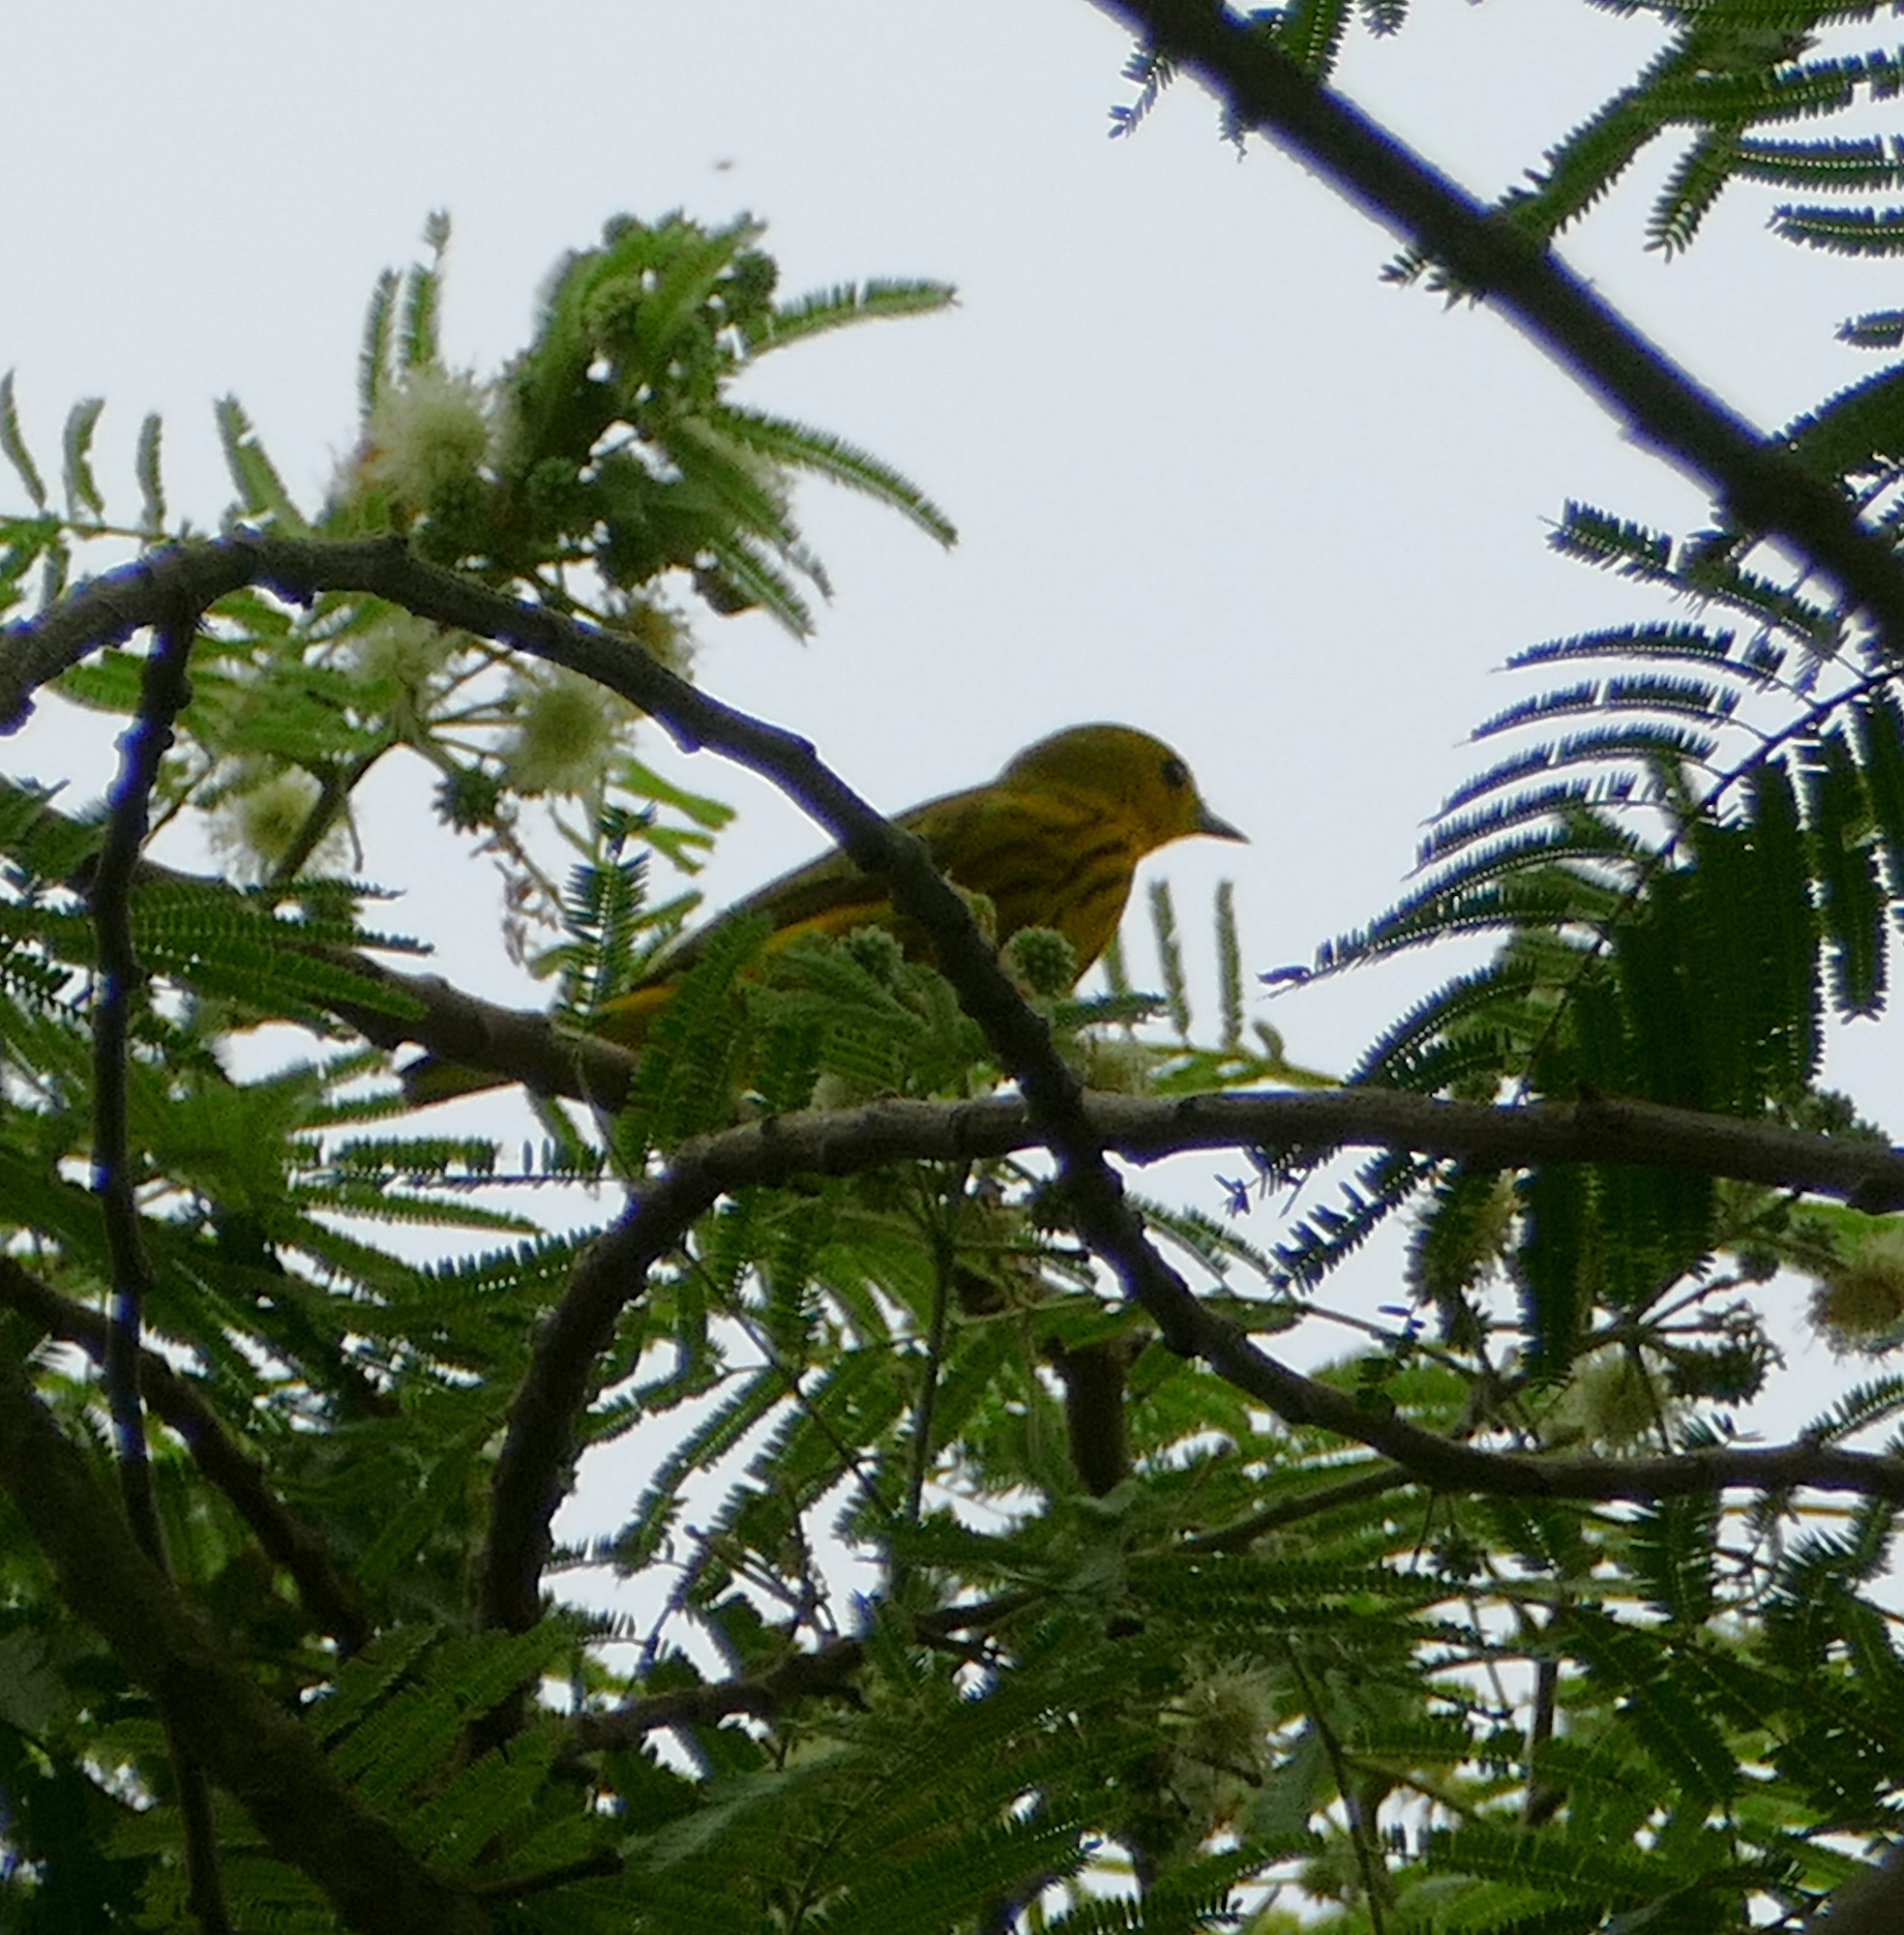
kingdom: Animalia
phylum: Chordata
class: Aves
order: Passeriformes
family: Parulidae
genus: Setophaga
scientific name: Setophaga petechia
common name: Yellow warbler
